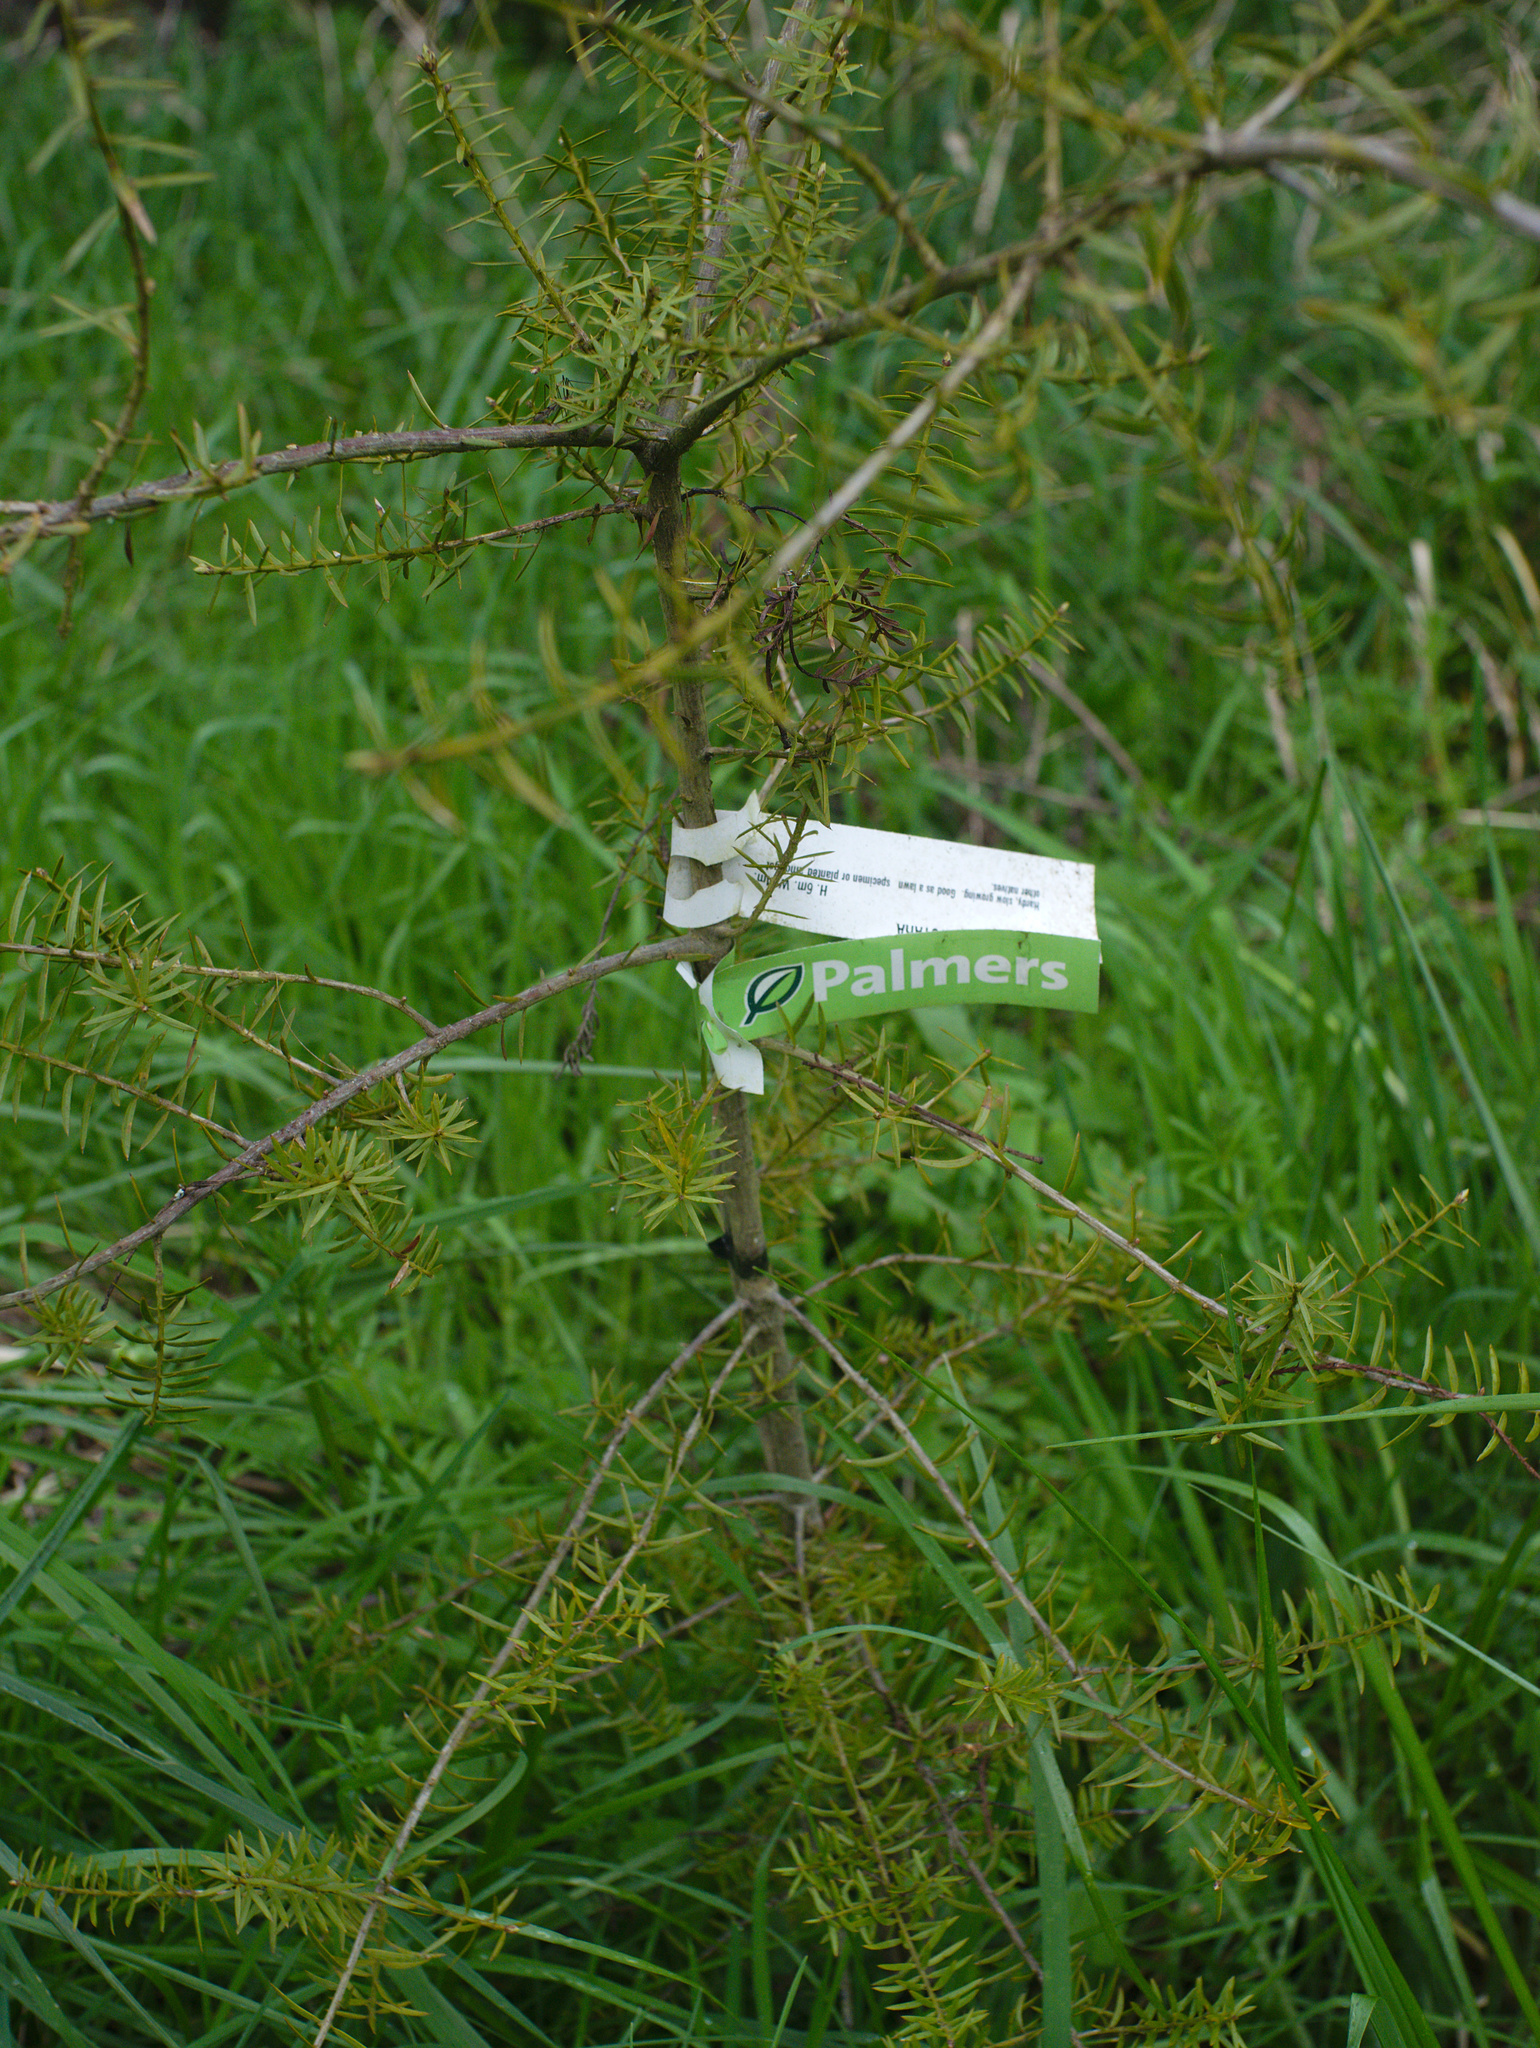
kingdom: Plantae
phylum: Tracheophyta
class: Pinopsida
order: Pinales
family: Podocarpaceae
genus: Podocarpus
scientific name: Podocarpus totara
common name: Totara
